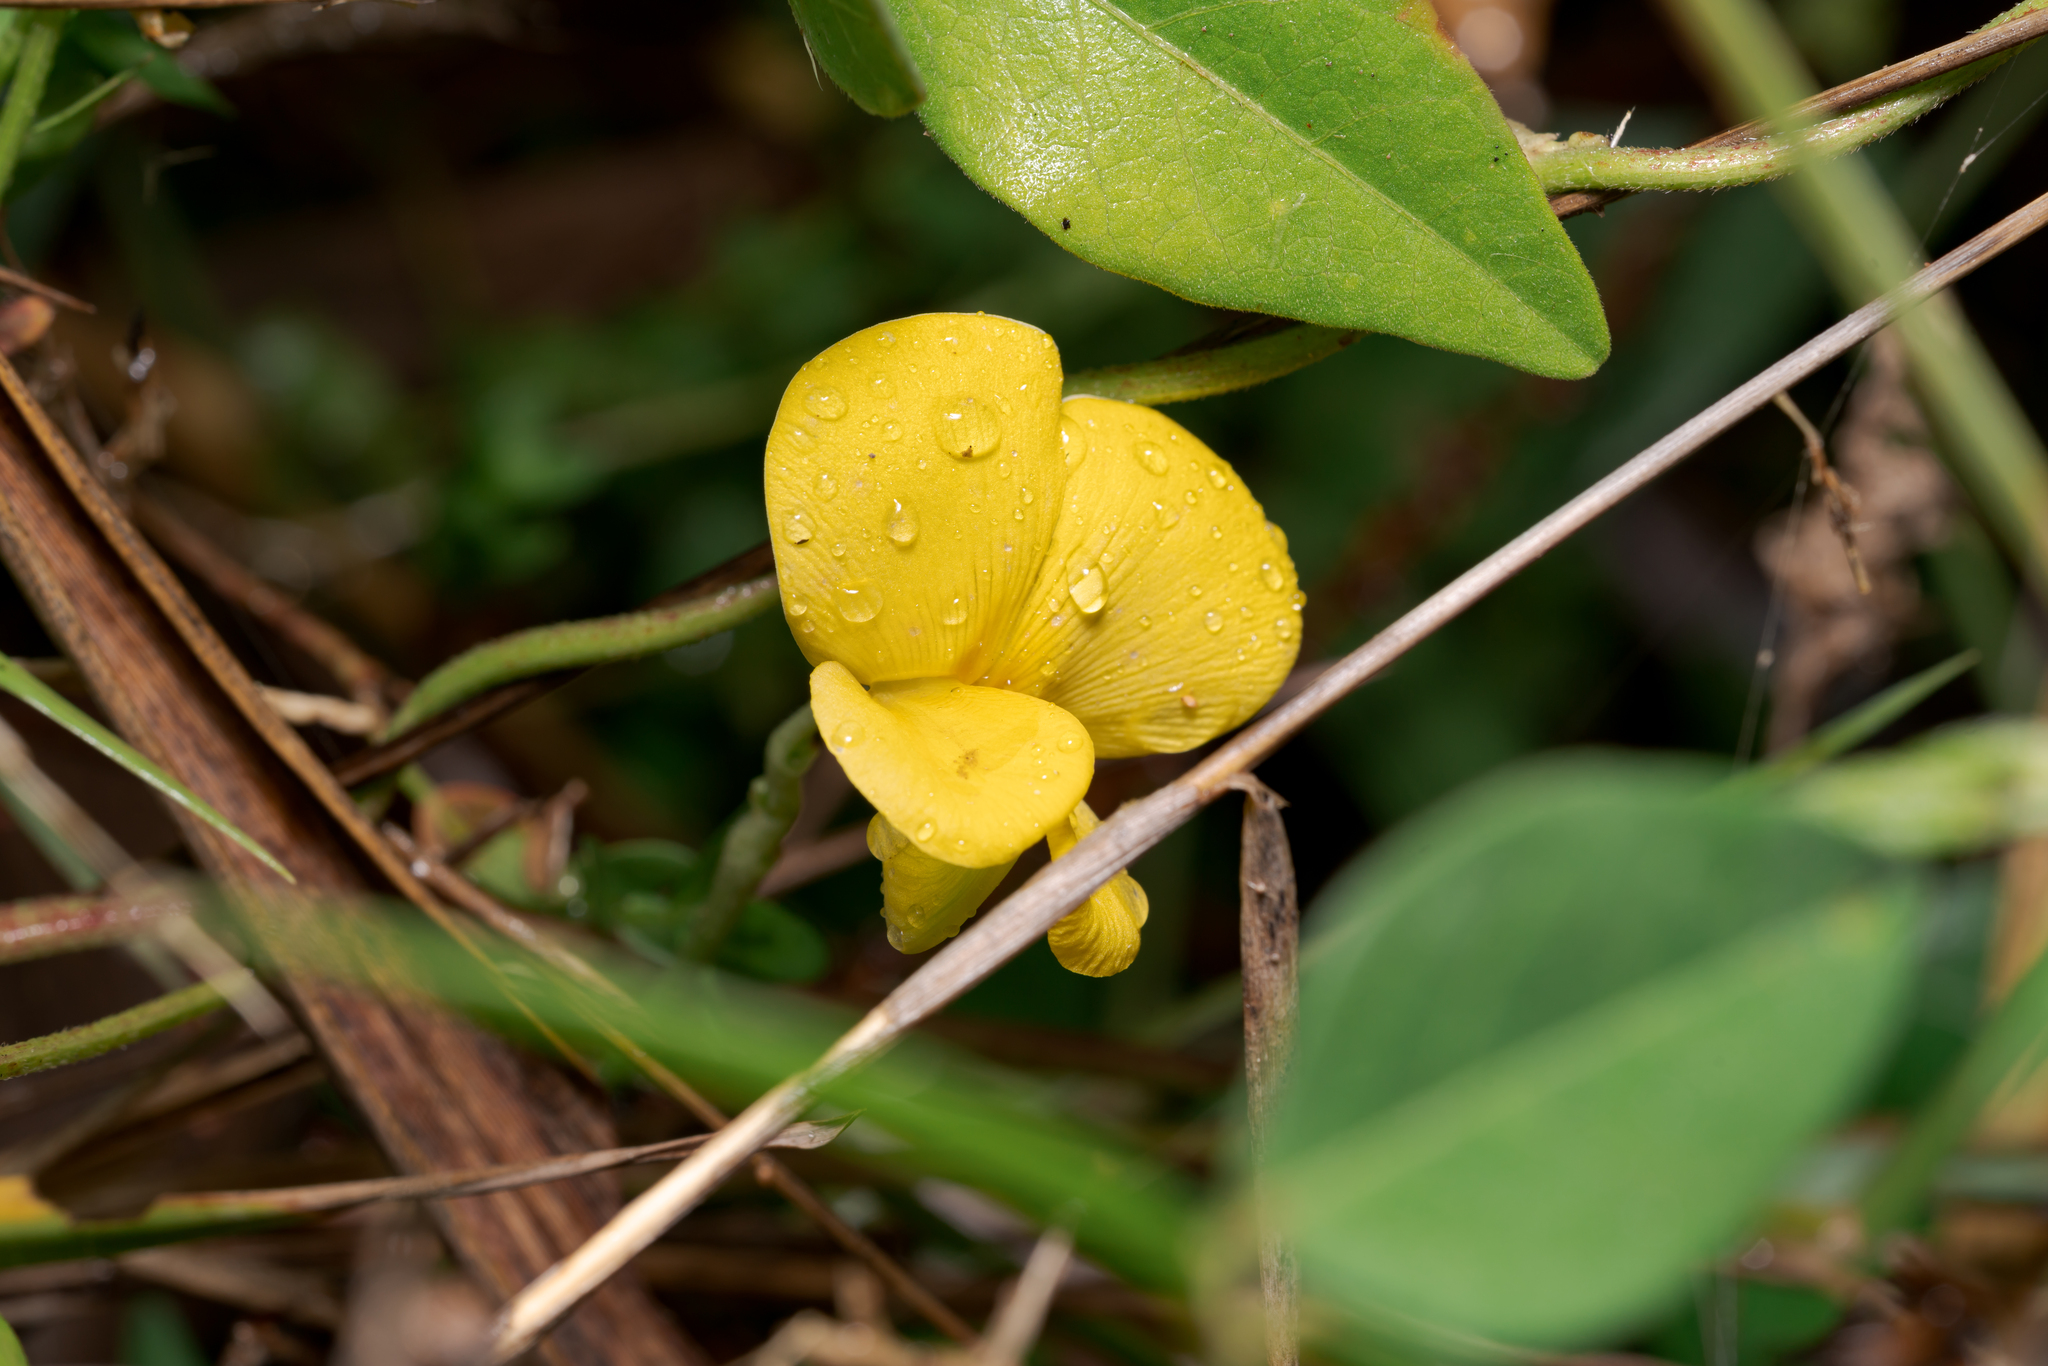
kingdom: Plantae
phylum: Tracheophyta
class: Magnoliopsida
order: Fabales
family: Fabaceae
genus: Vigna
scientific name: Vigna luteola
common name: Hairypod cowpea
